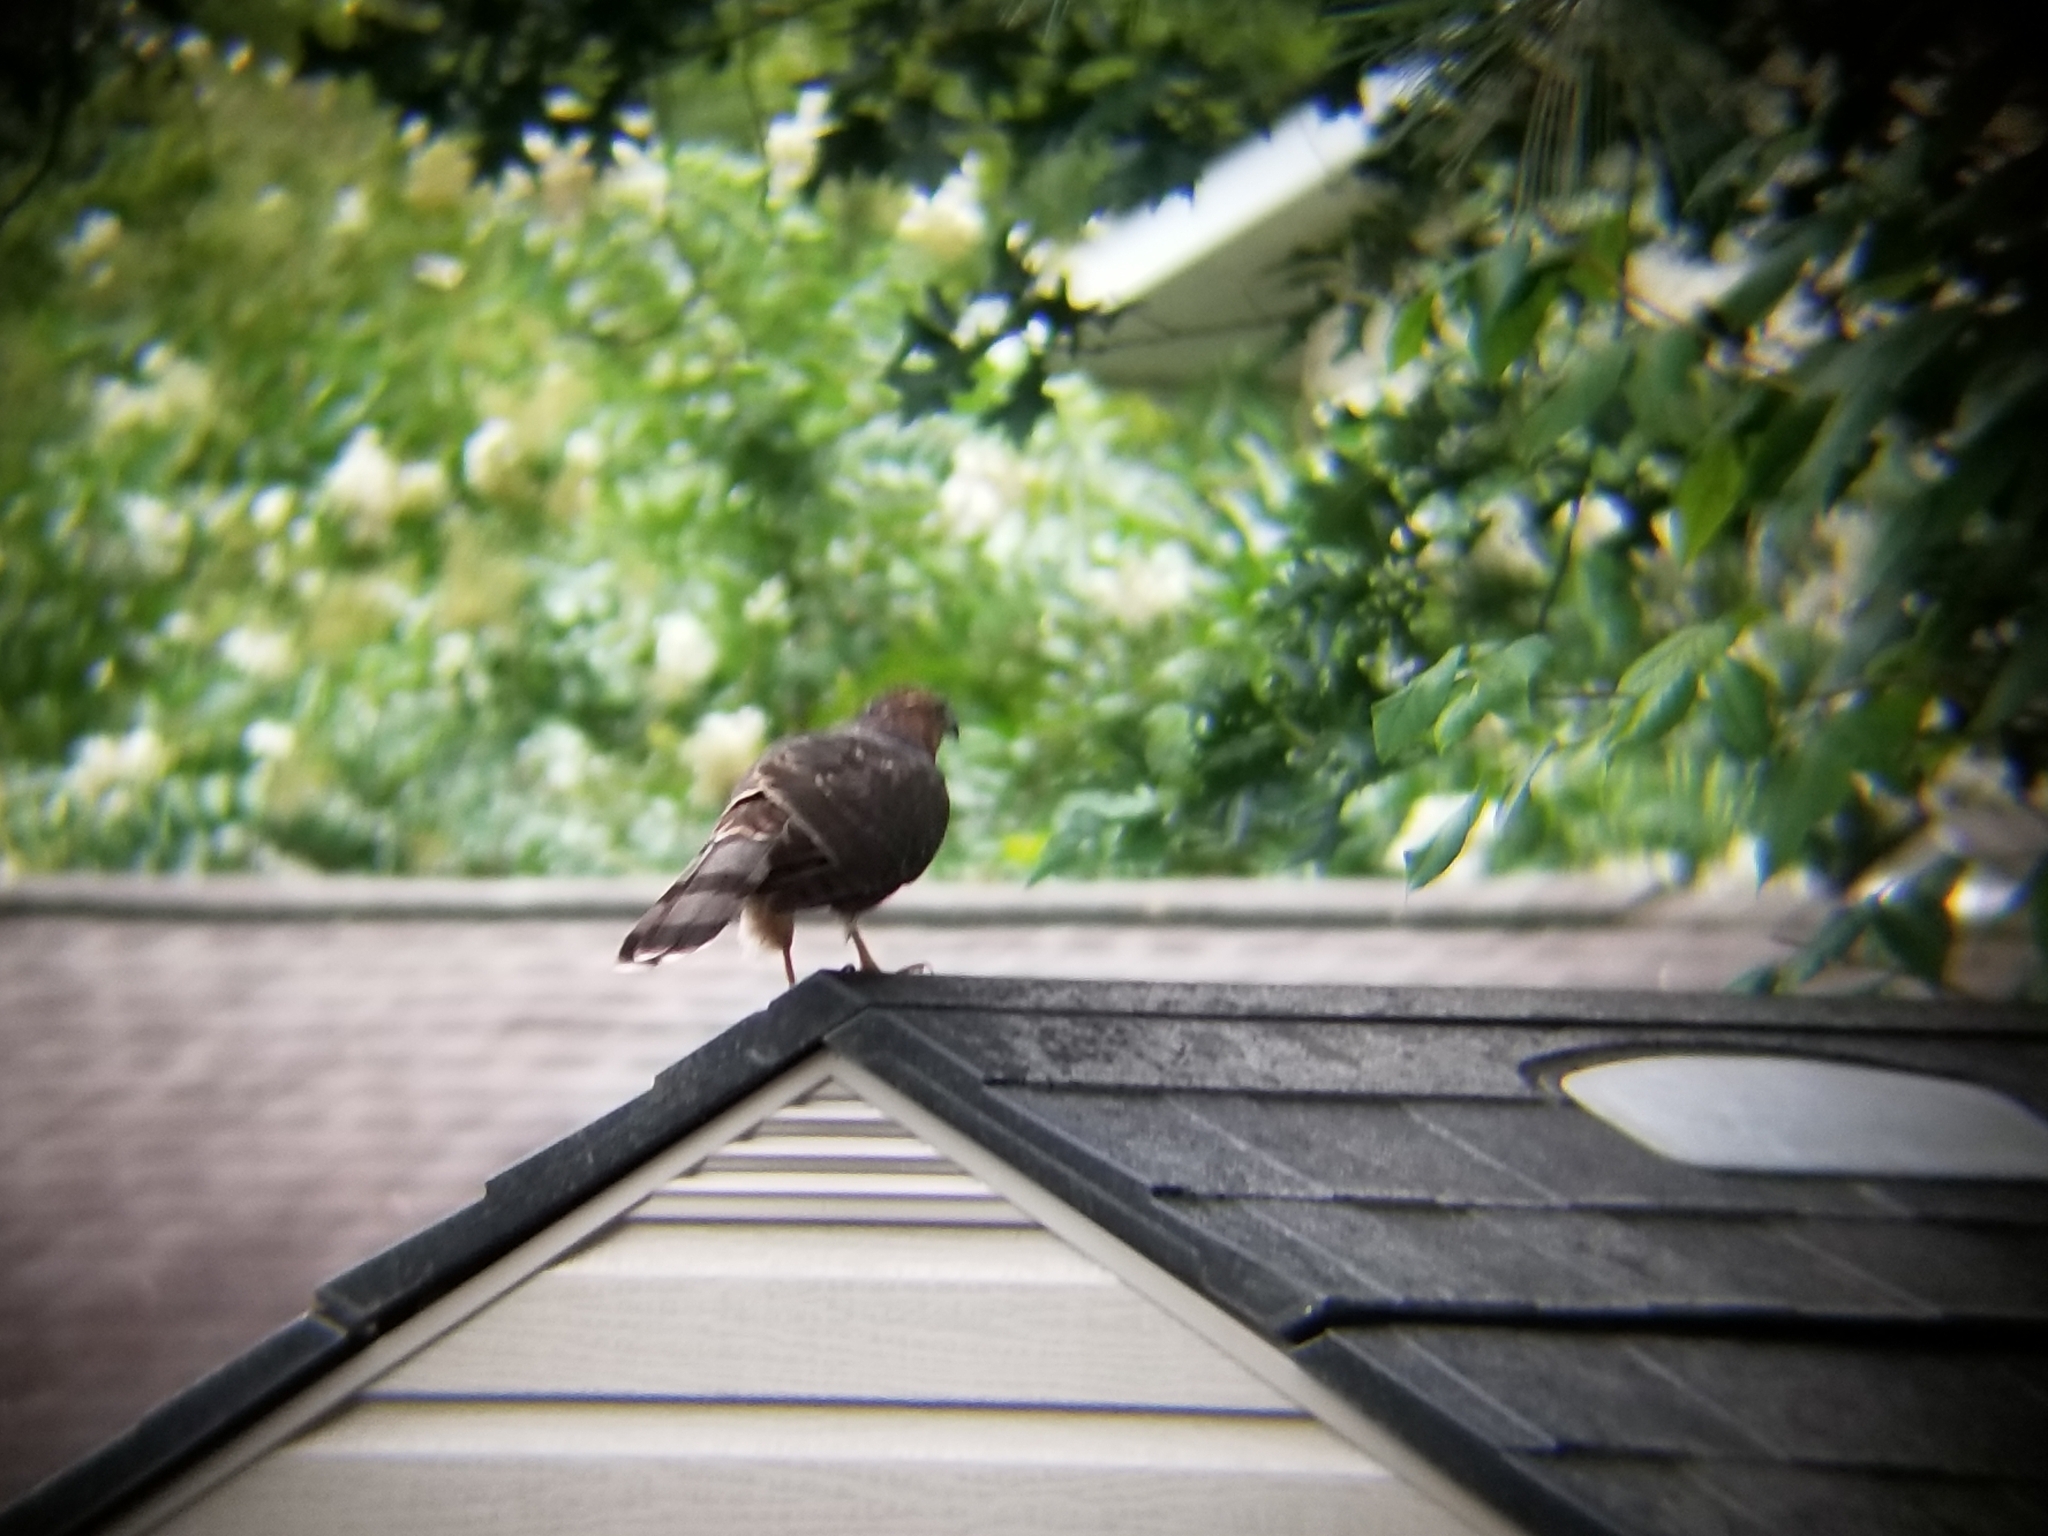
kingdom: Animalia
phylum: Chordata
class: Aves
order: Accipitriformes
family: Accipitridae
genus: Accipiter
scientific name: Accipiter cooperii
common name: Cooper's hawk
